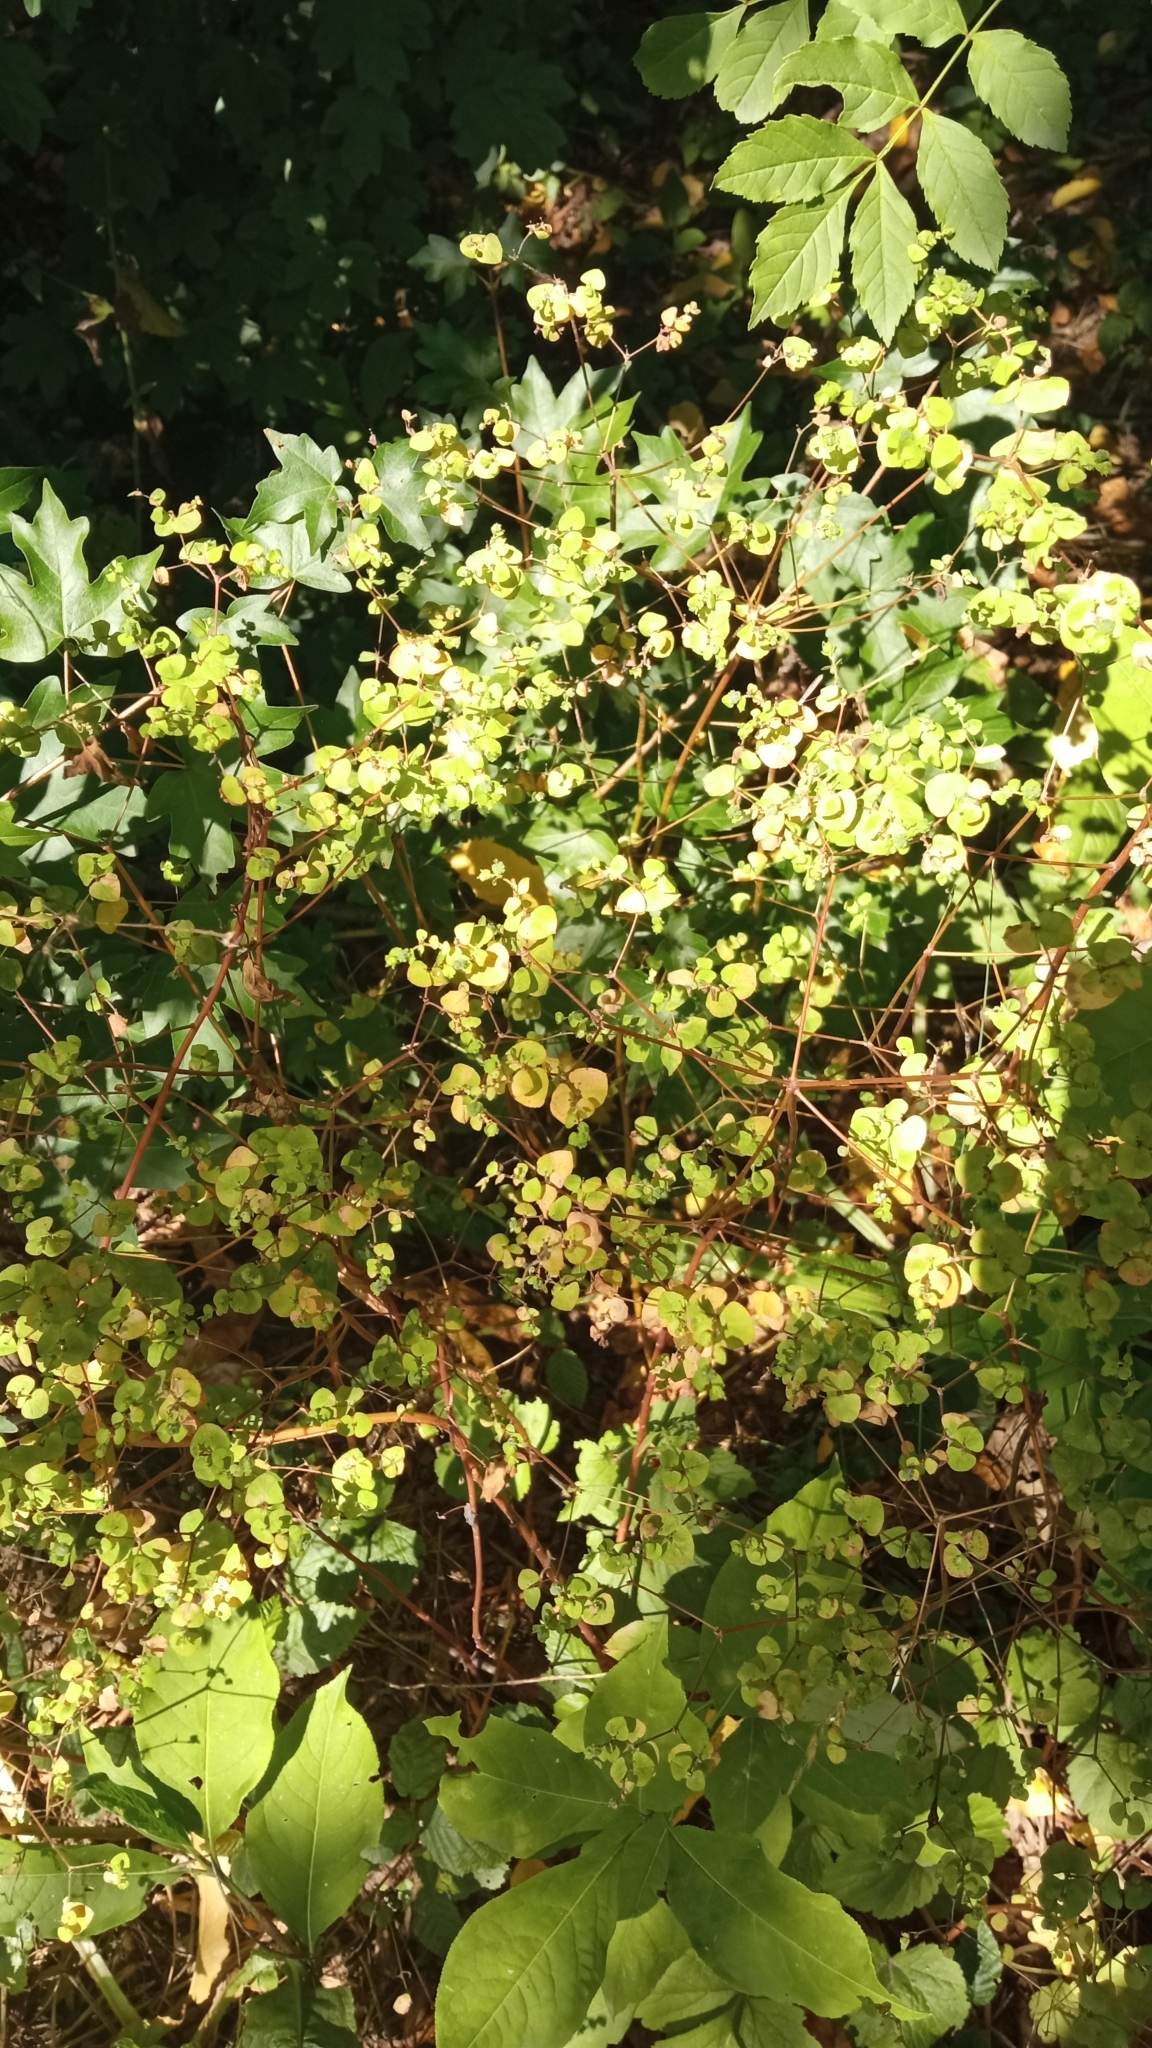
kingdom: Plantae
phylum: Tracheophyta
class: Magnoliopsida
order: Malpighiales
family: Euphorbiaceae
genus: Euphorbia
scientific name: Euphorbia stricta
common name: Upright spurge
